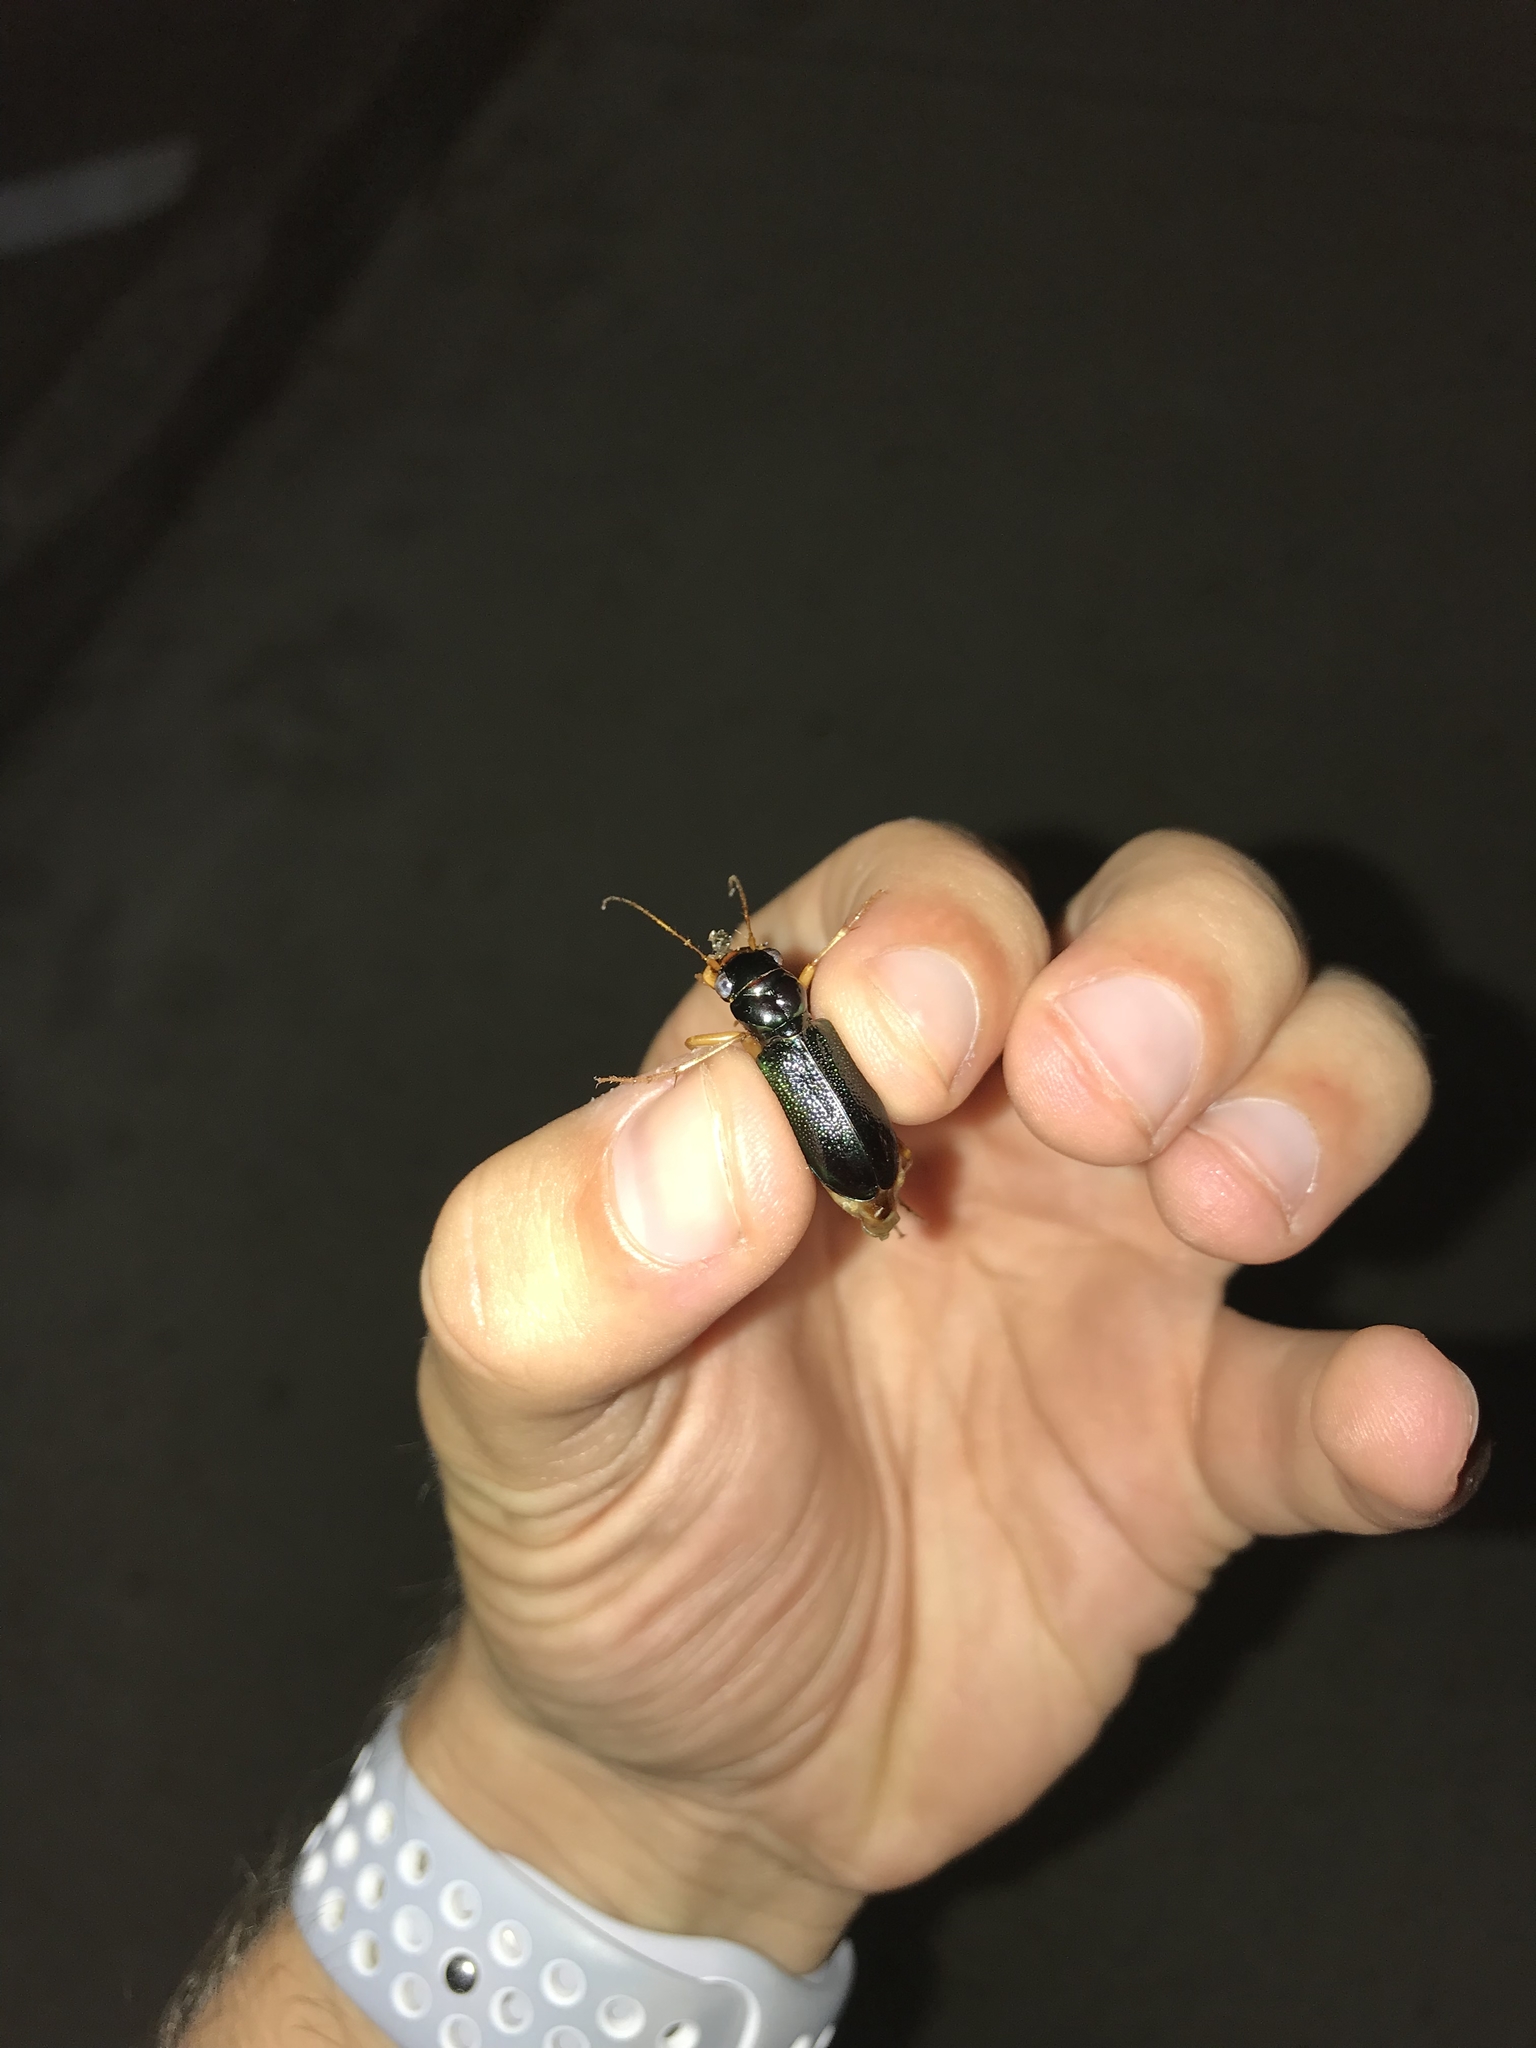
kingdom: Animalia
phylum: Arthropoda
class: Insecta
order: Coleoptera
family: Carabidae
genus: Tetracha
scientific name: Tetracha virginica
